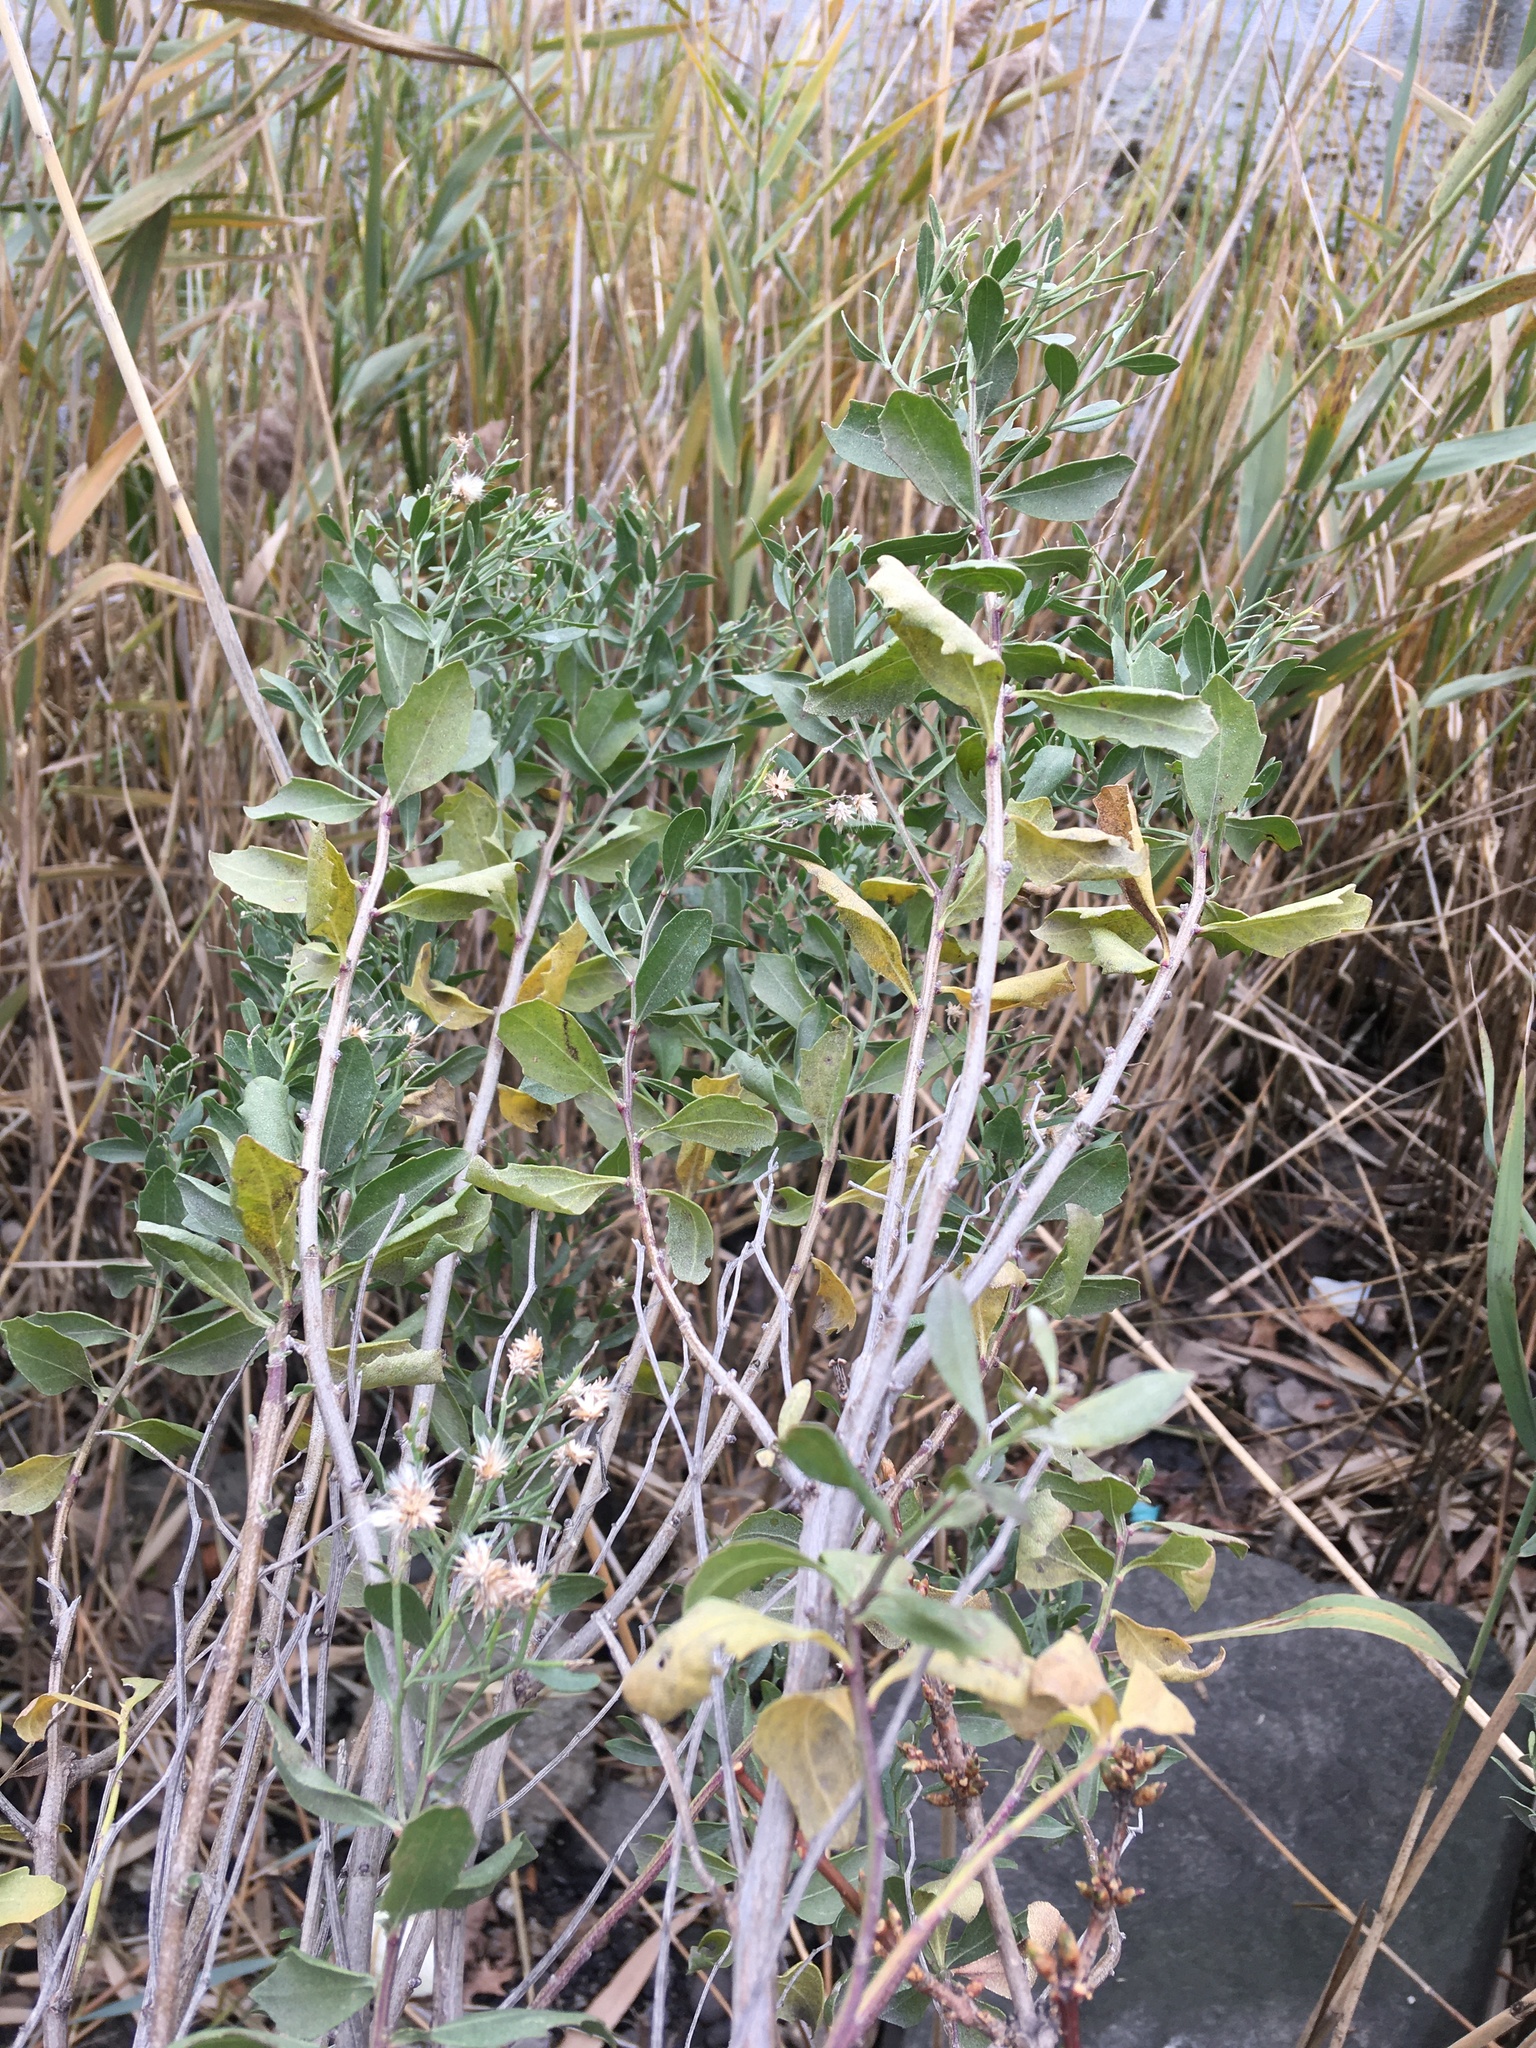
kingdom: Plantae
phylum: Tracheophyta
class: Magnoliopsida
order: Asterales
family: Asteraceae
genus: Baccharis
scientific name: Baccharis halimifolia
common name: Eastern baccharis
